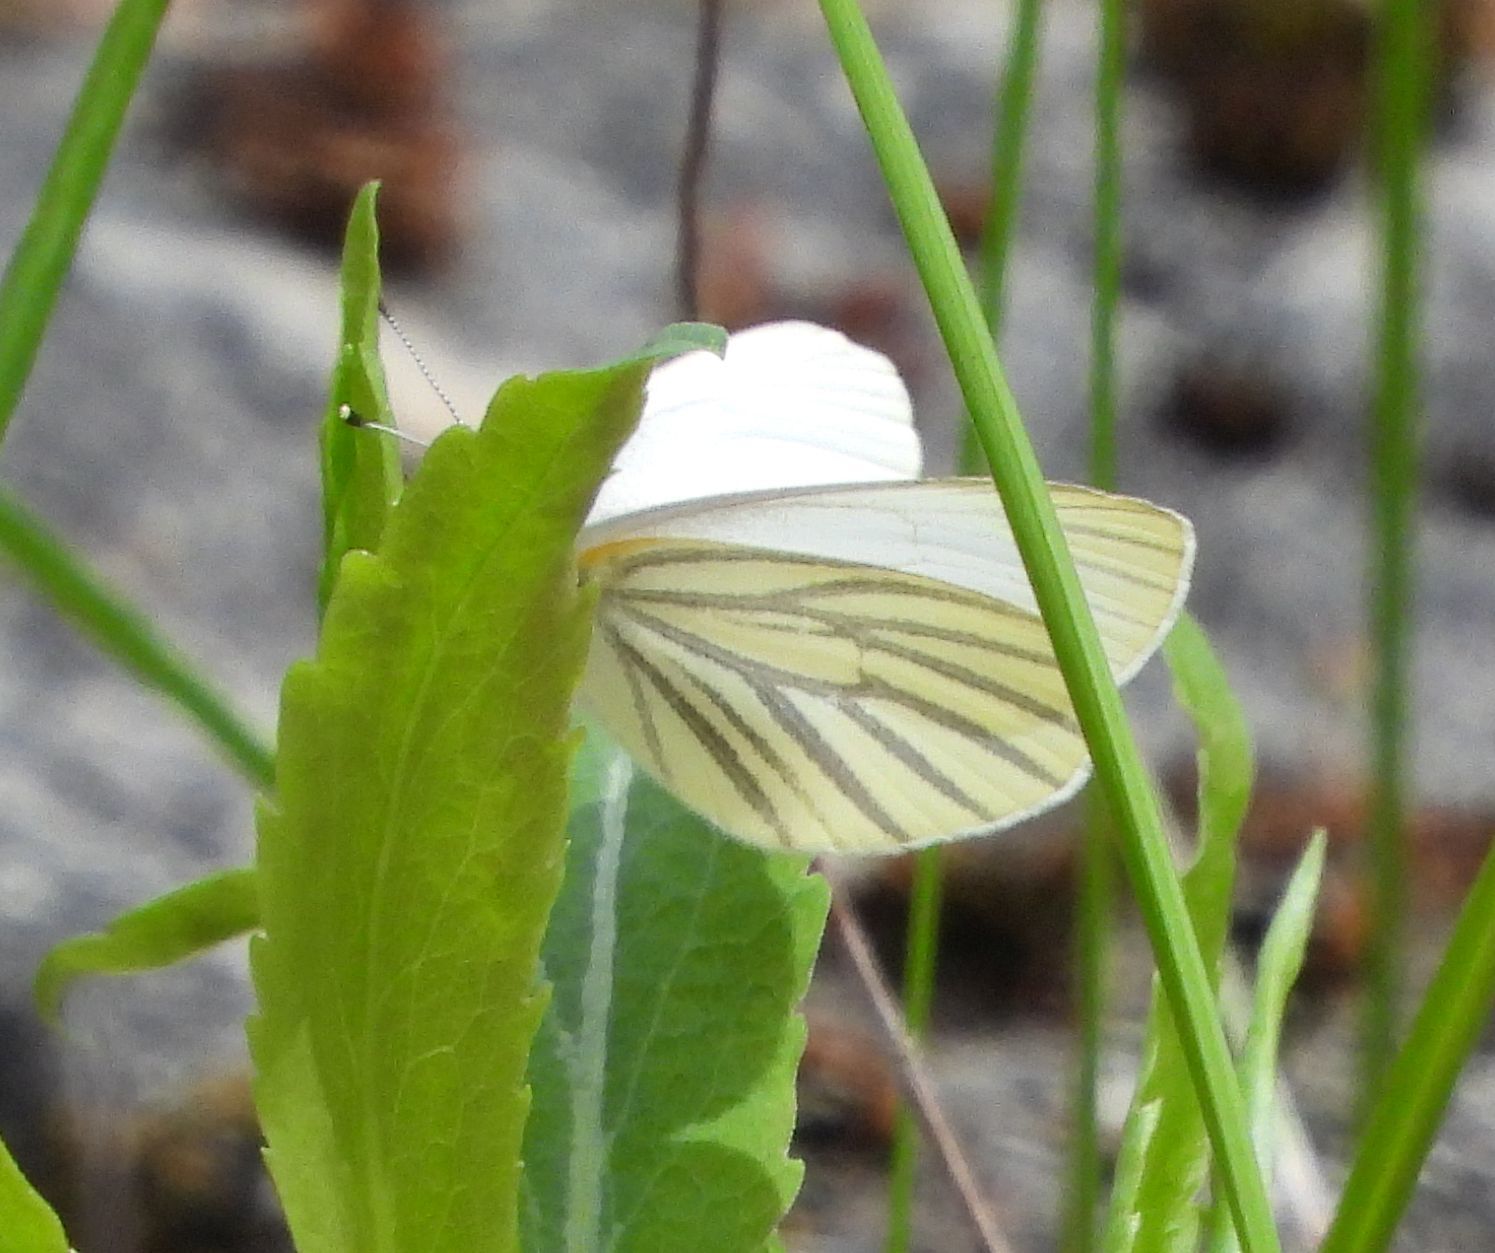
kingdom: Animalia
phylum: Arthropoda
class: Insecta
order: Lepidoptera
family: Pieridae
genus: Pieris
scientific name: Pieris oleracea
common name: Mustard white
